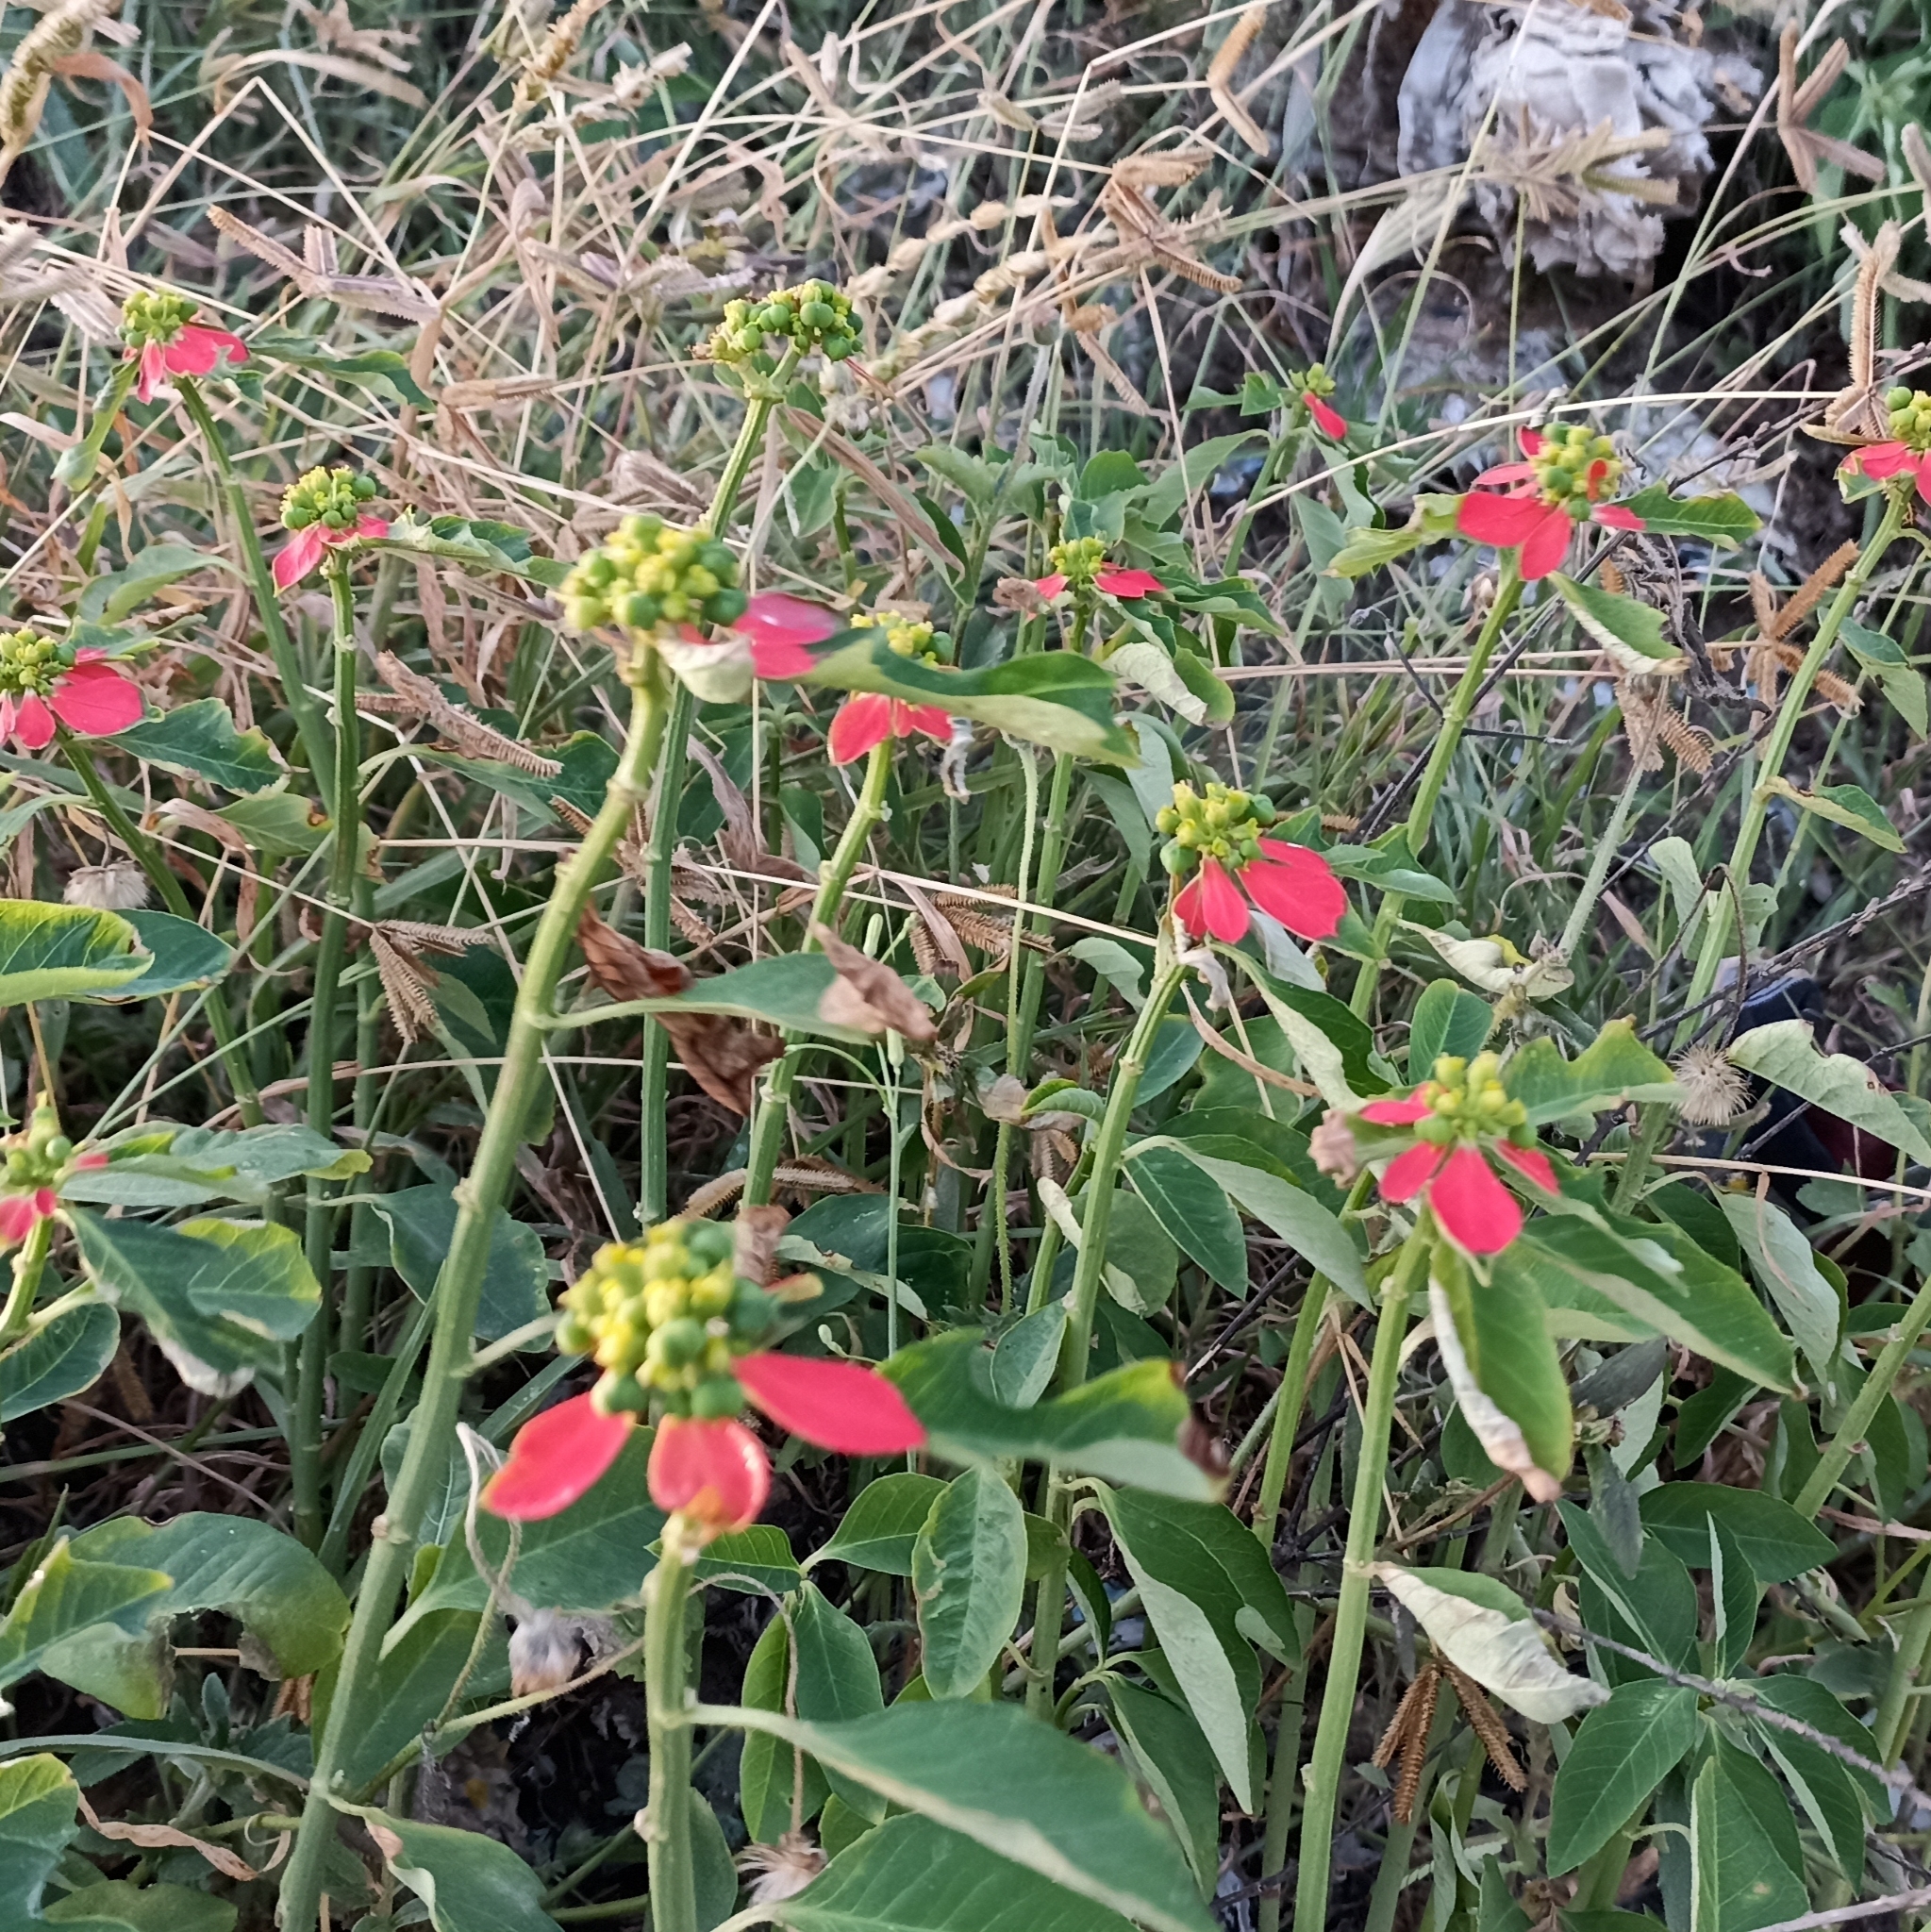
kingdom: Plantae
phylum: Tracheophyta
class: Magnoliopsida
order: Malpighiales
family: Euphorbiaceae
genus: Euphorbia
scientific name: Euphorbia heterophylla
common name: Mexican fireplant
